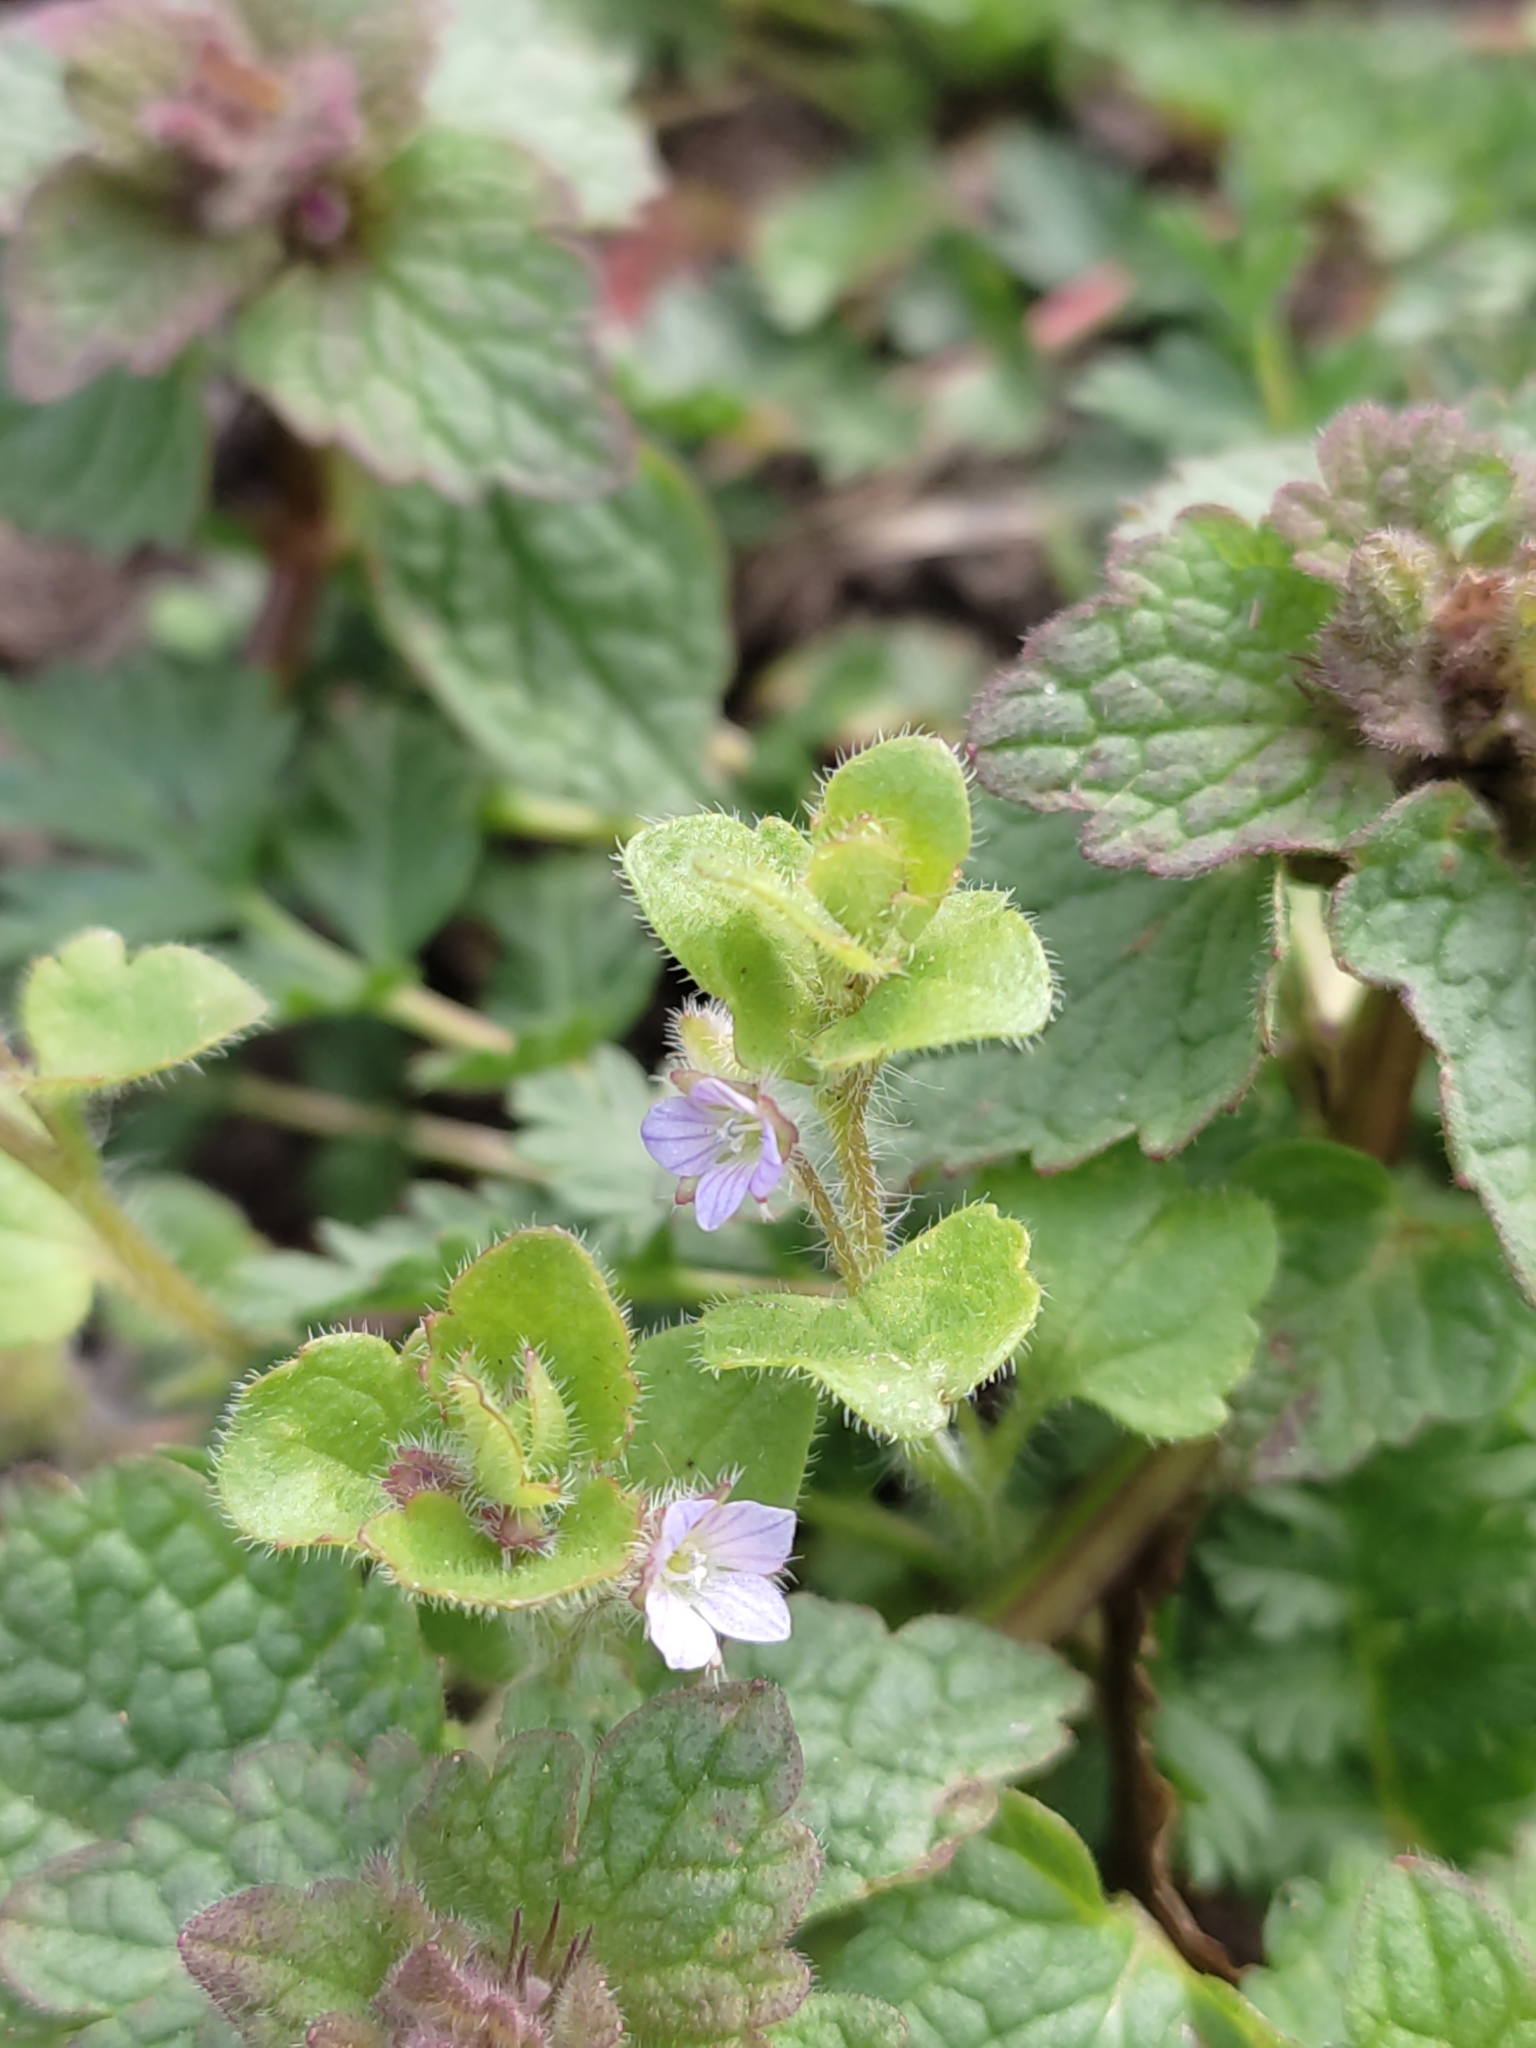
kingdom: Plantae
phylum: Tracheophyta
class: Magnoliopsida
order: Lamiales
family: Plantaginaceae
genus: Veronica
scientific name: Veronica sublobata
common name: False ivy-leaved speedwell
